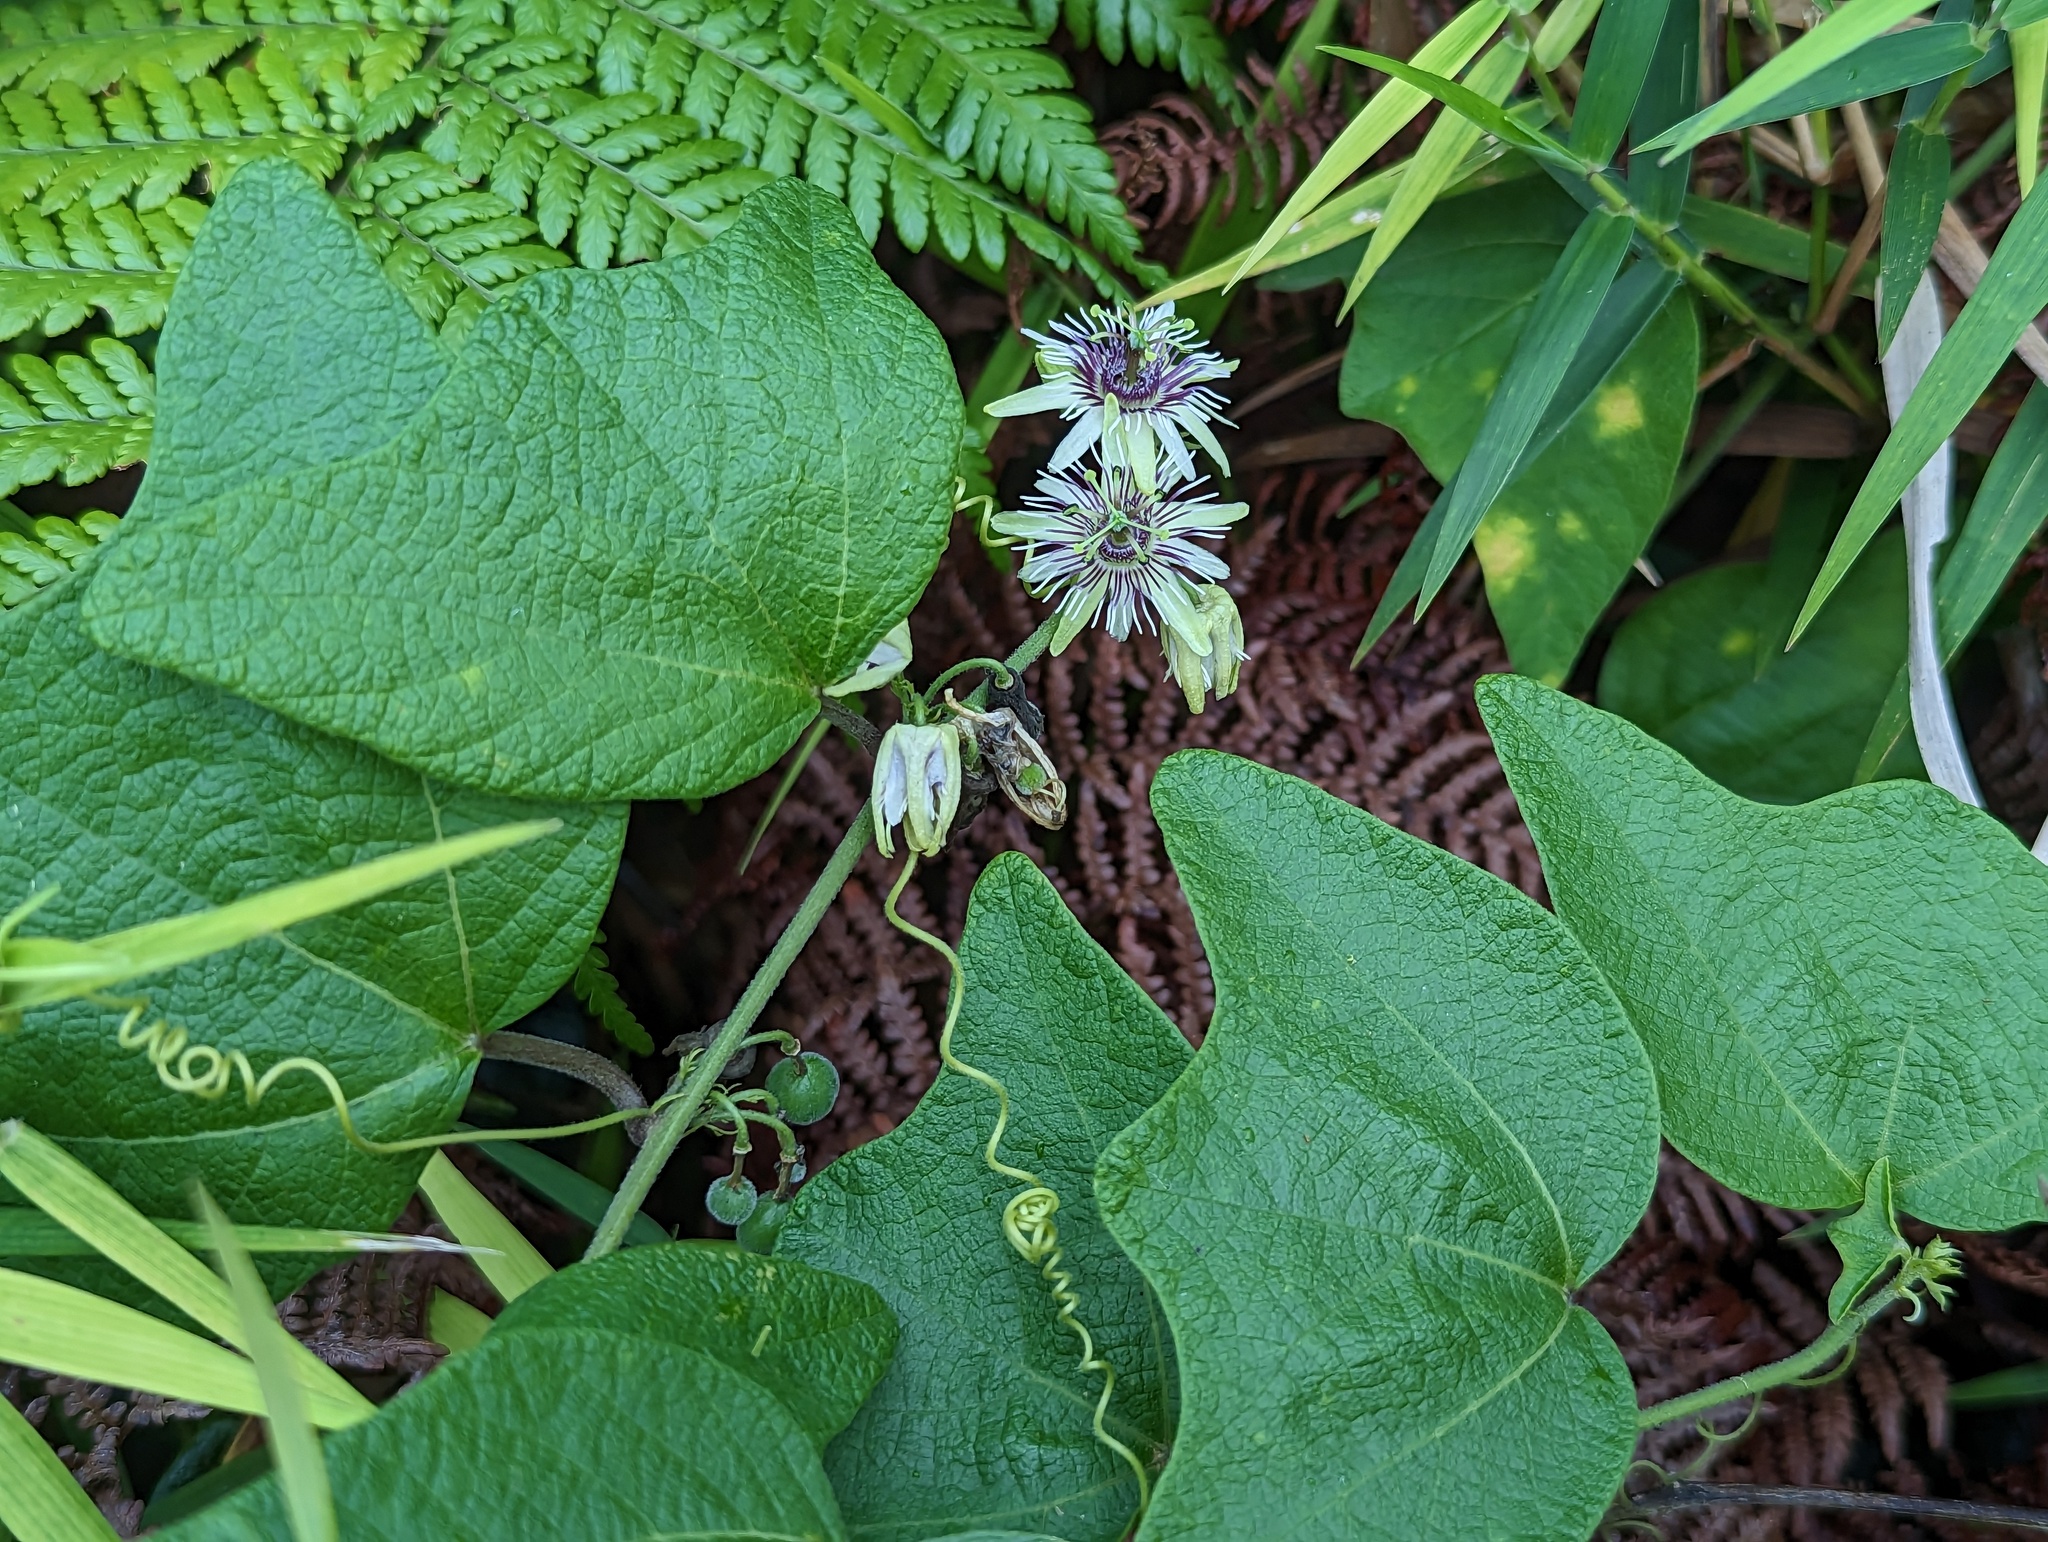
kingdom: Plantae
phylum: Tracheophyta
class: Magnoliopsida
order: Malpighiales
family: Passifloraceae
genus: Passiflora
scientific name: Passiflora sexflora
